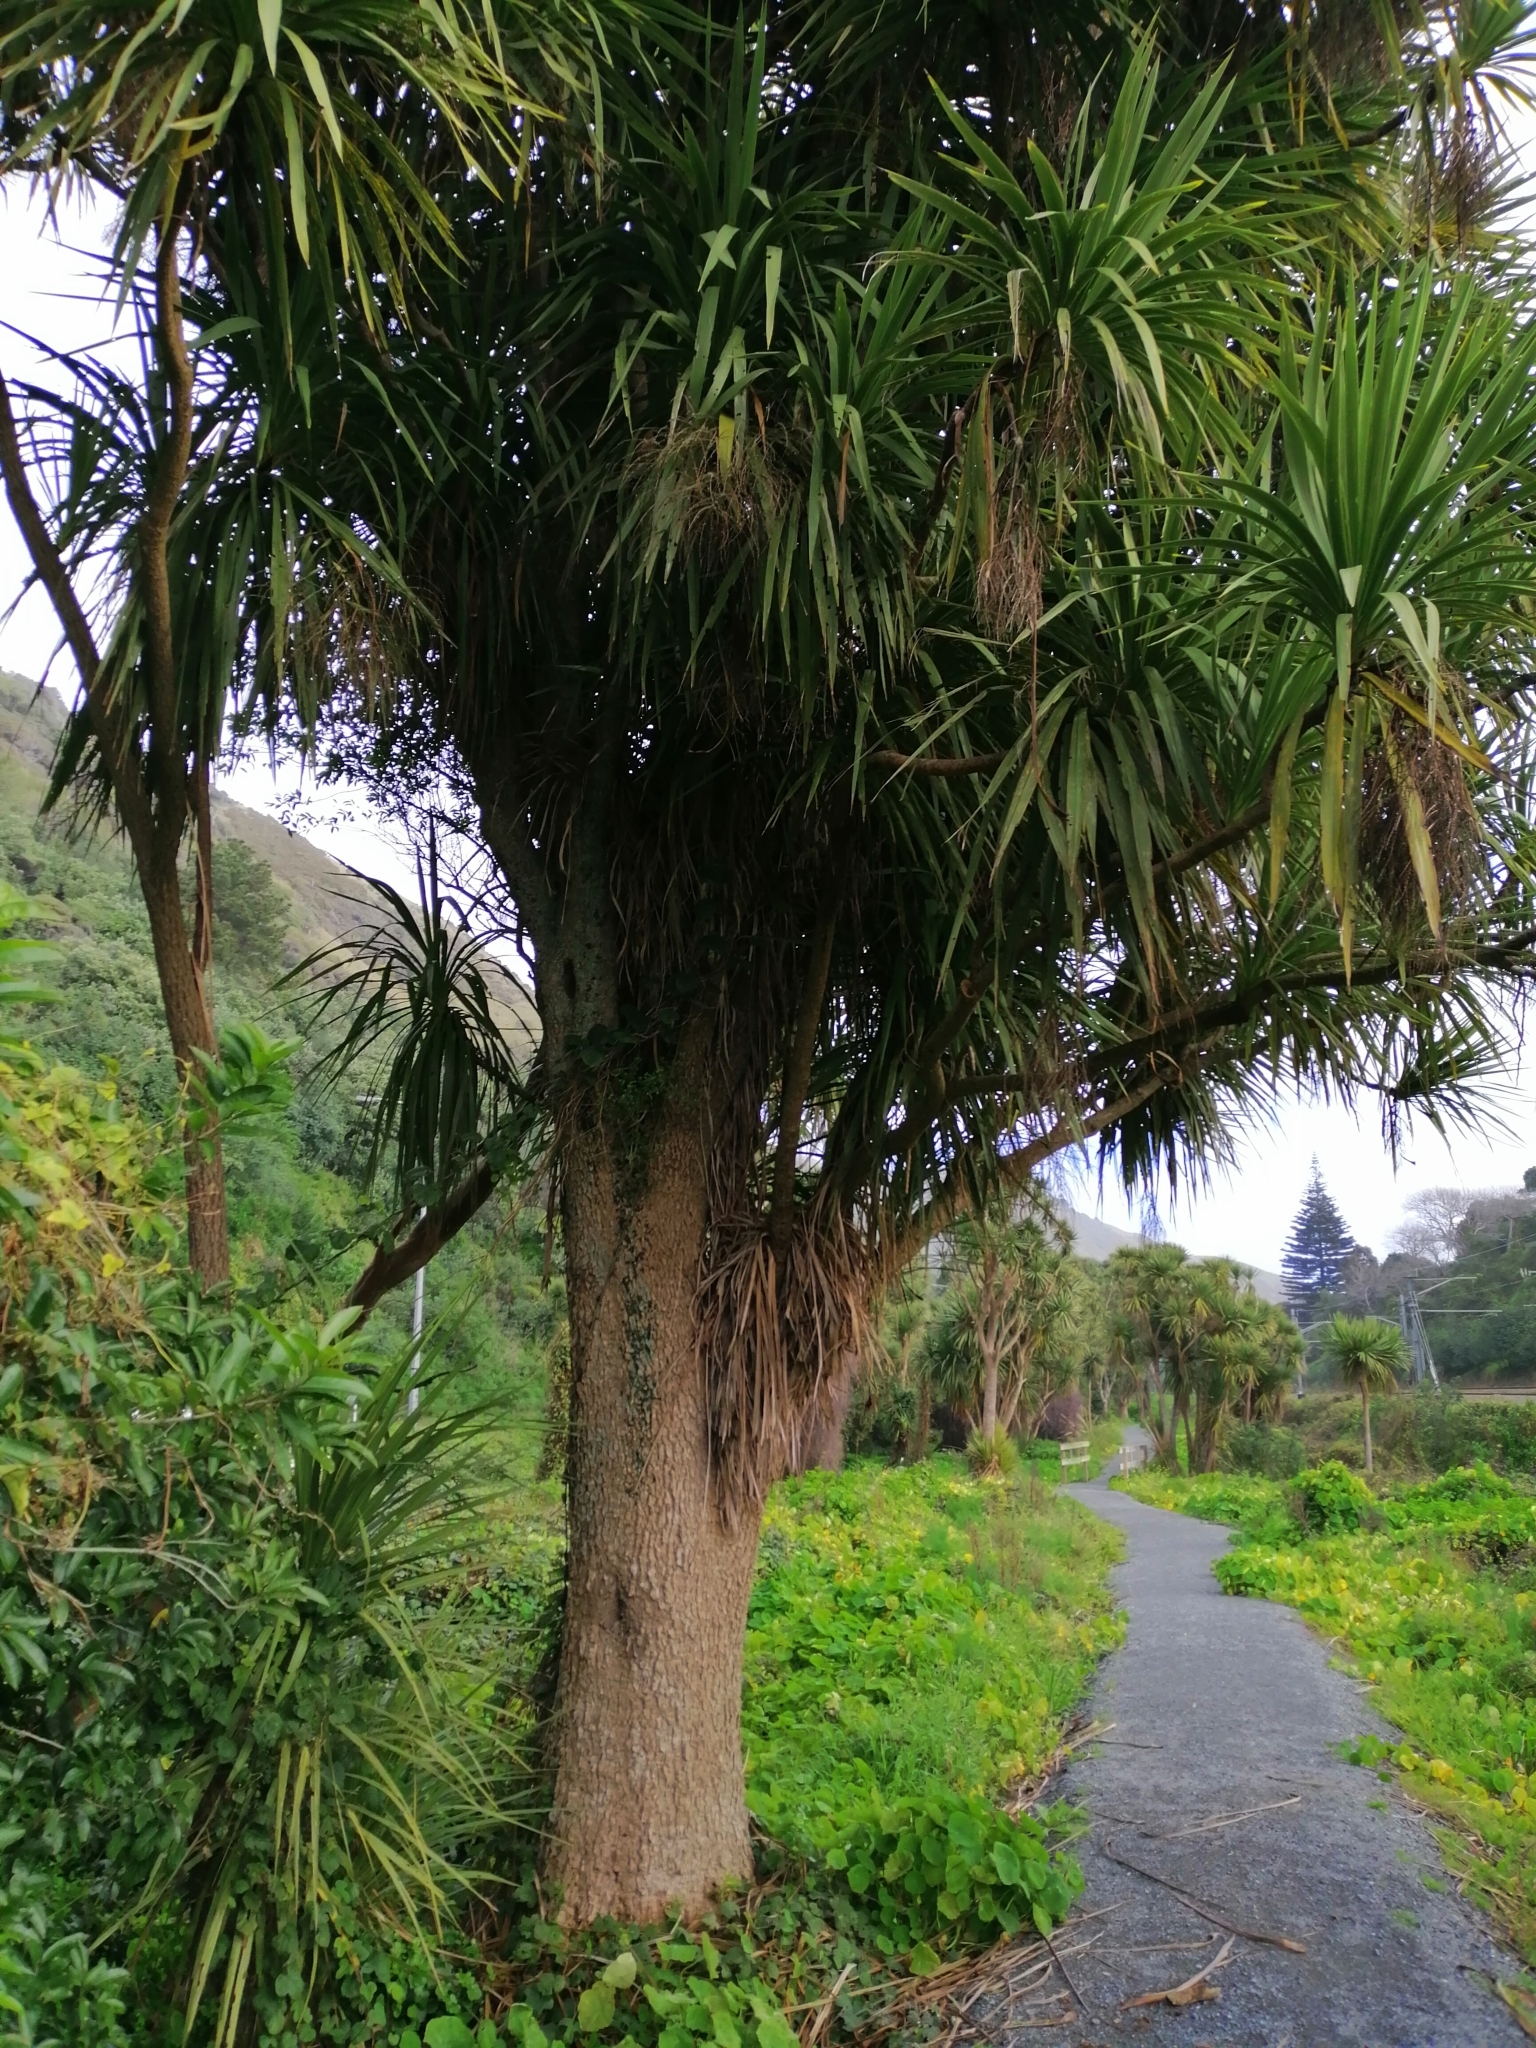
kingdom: Plantae
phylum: Tracheophyta
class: Liliopsida
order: Asparagales
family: Asparagaceae
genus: Cordyline
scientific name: Cordyline australis
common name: Cabbage-palm
